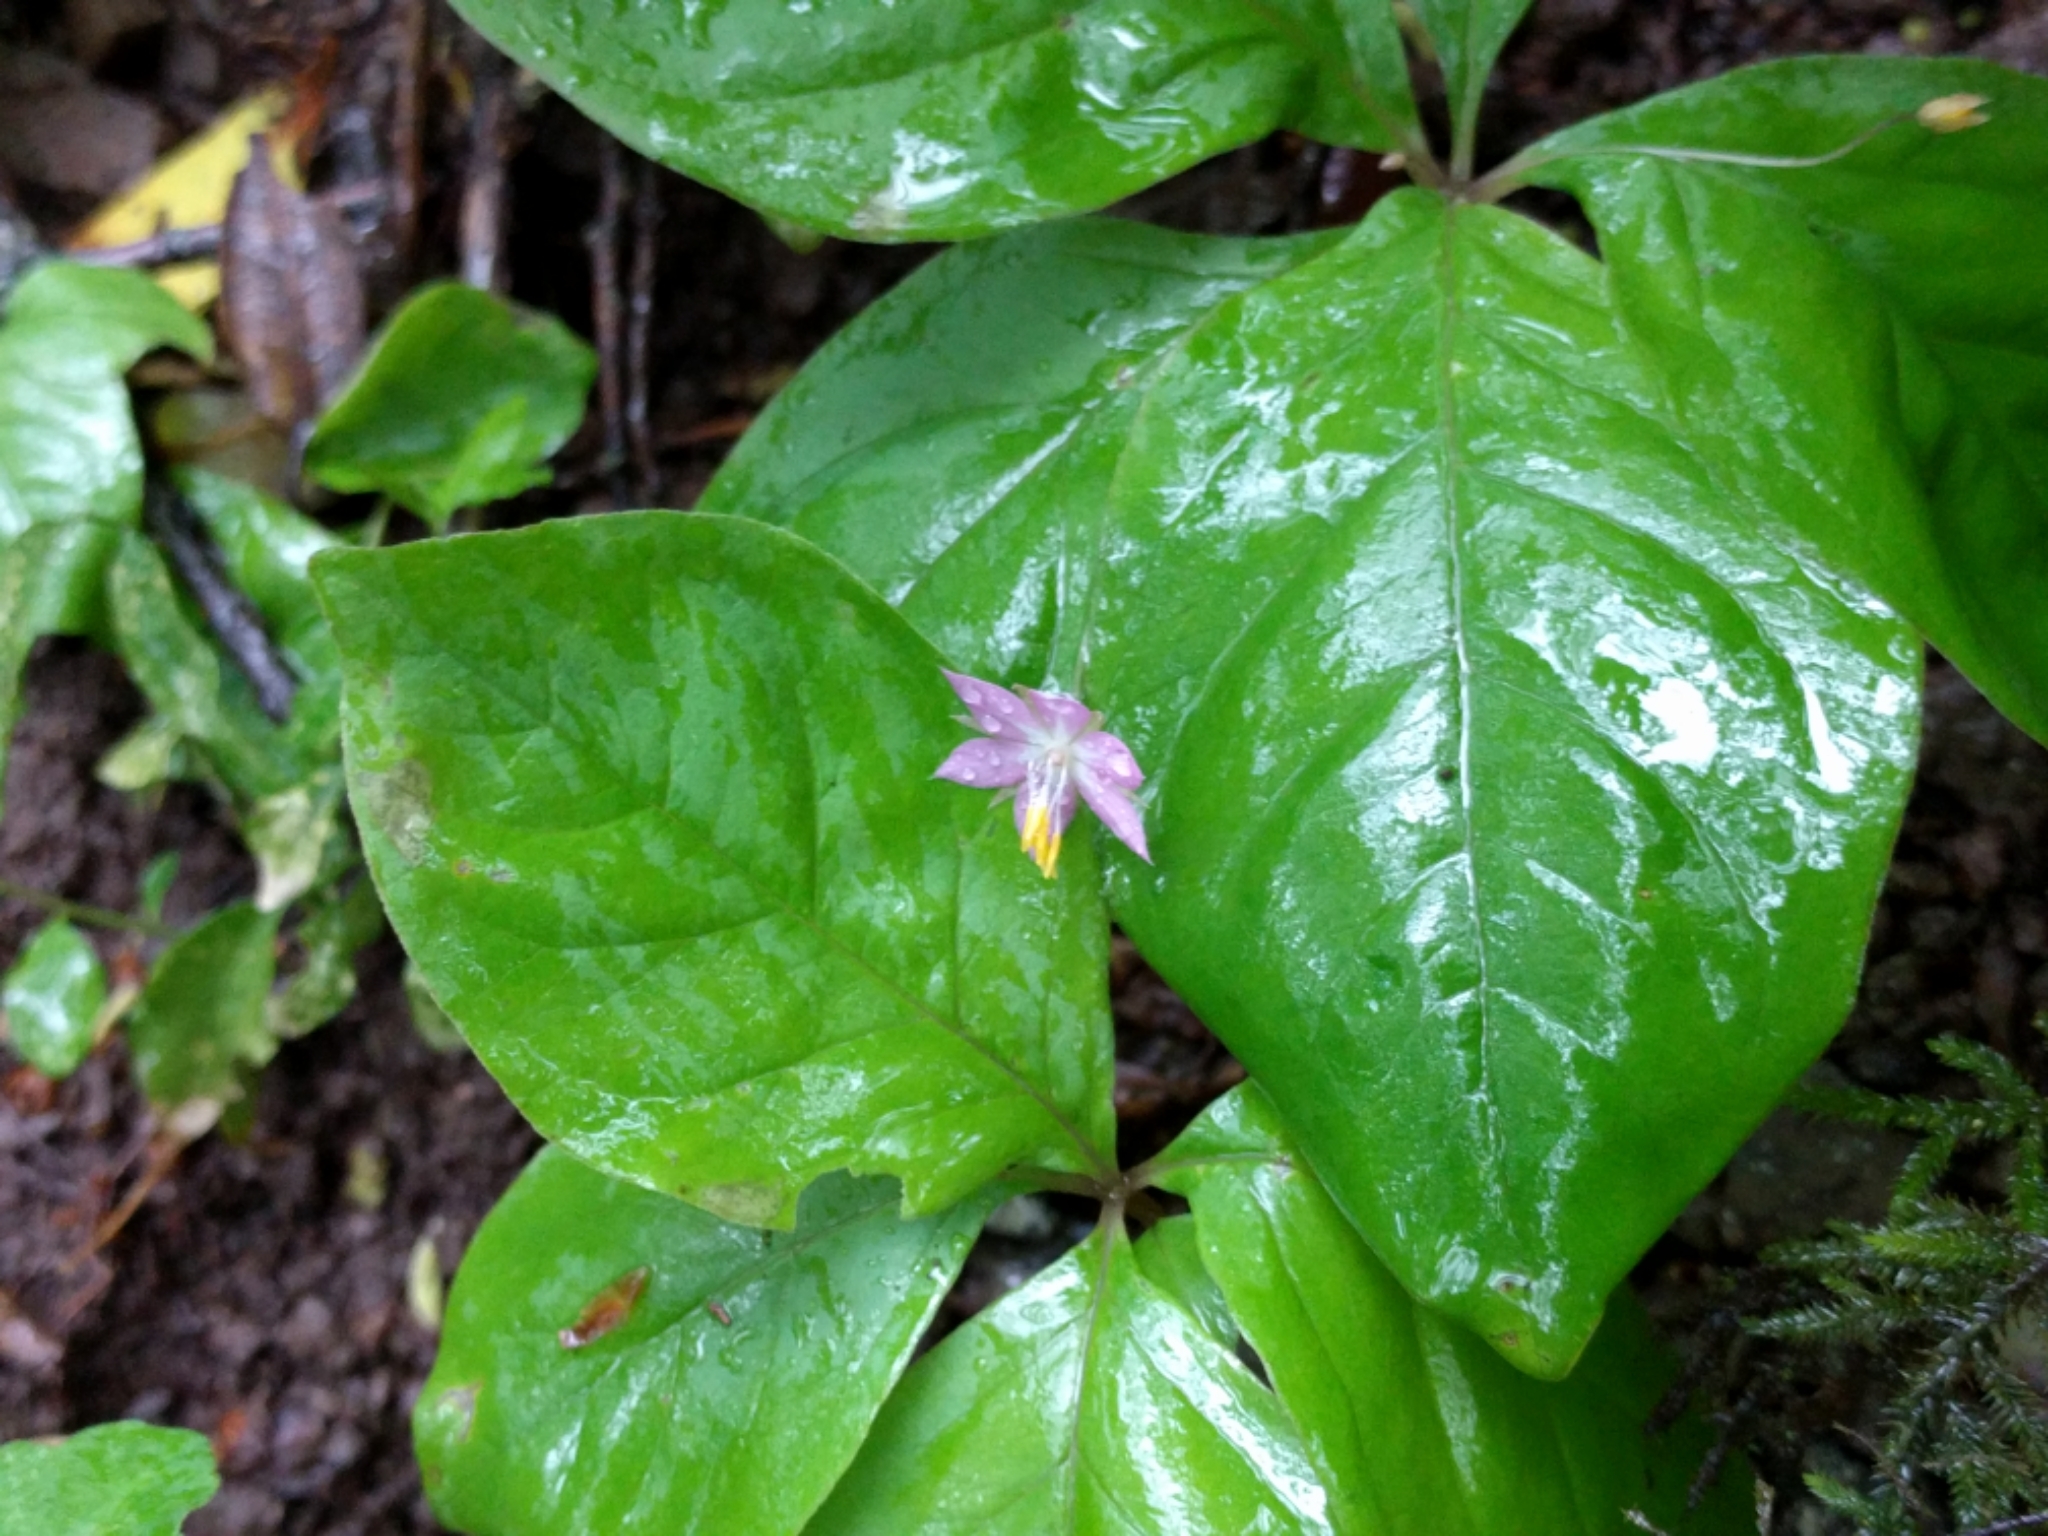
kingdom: Plantae
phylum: Tracheophyta
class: Magnoliopsida
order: Ericales
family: Primulaceae
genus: Lysimachia
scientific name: Lysimachia latifolia
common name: Pacific starflower
